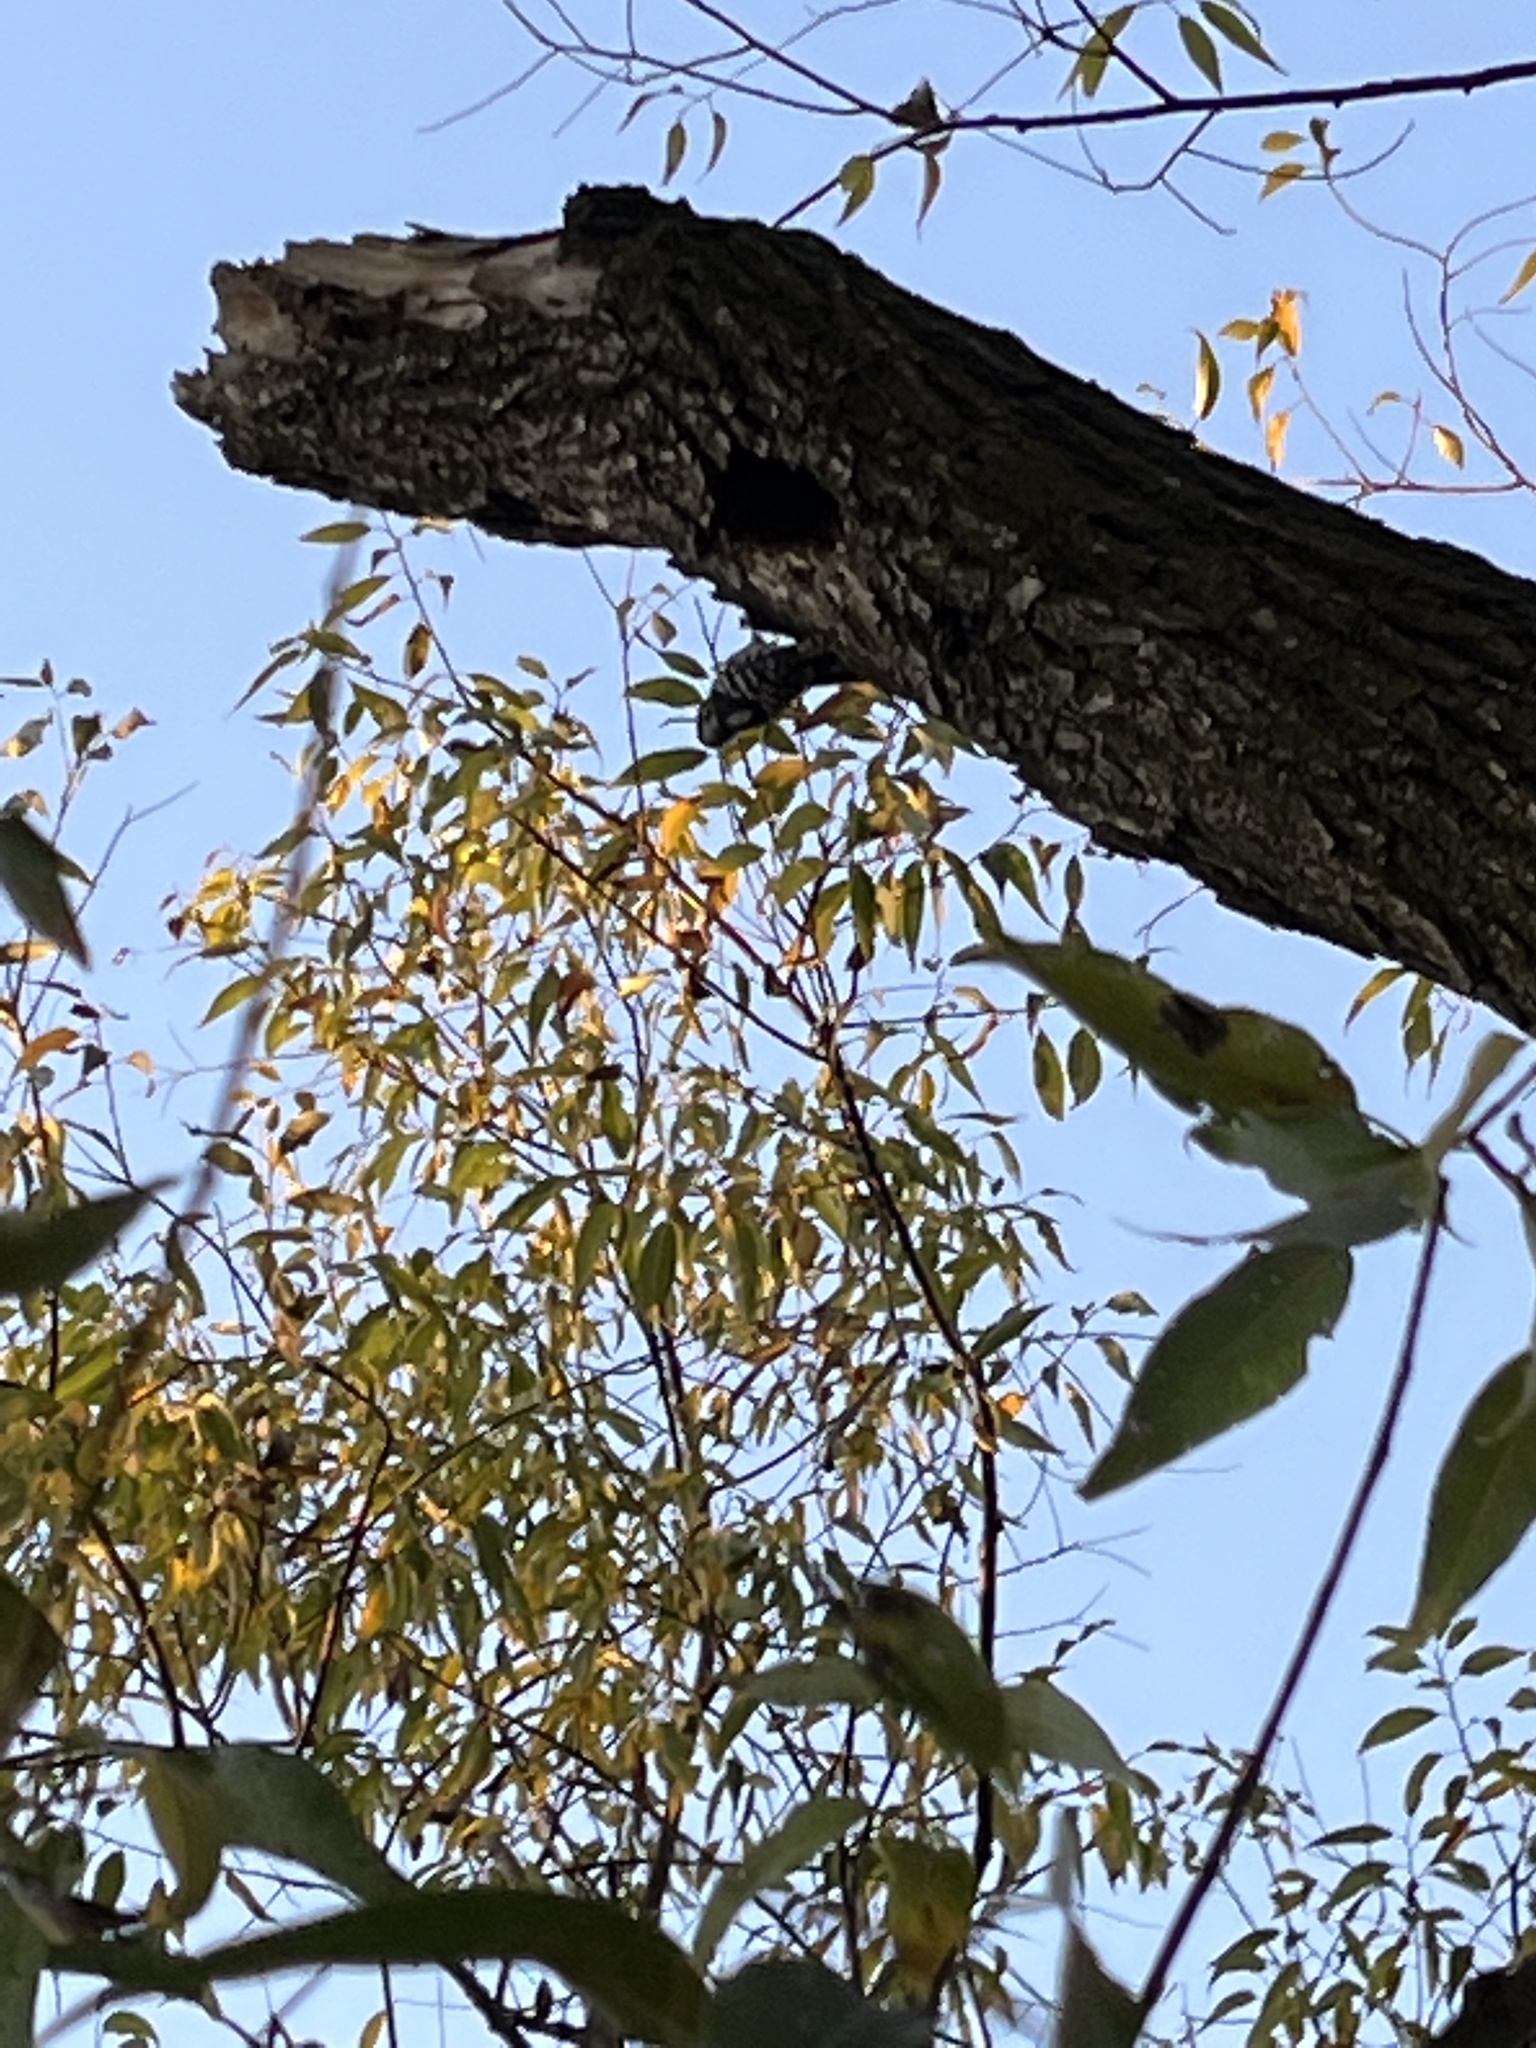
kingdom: Animalia
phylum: Chordata
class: Aves
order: Piciformes
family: Picidae
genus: Dryobates
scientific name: Dryobates pubescens
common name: Downy woodpecker
